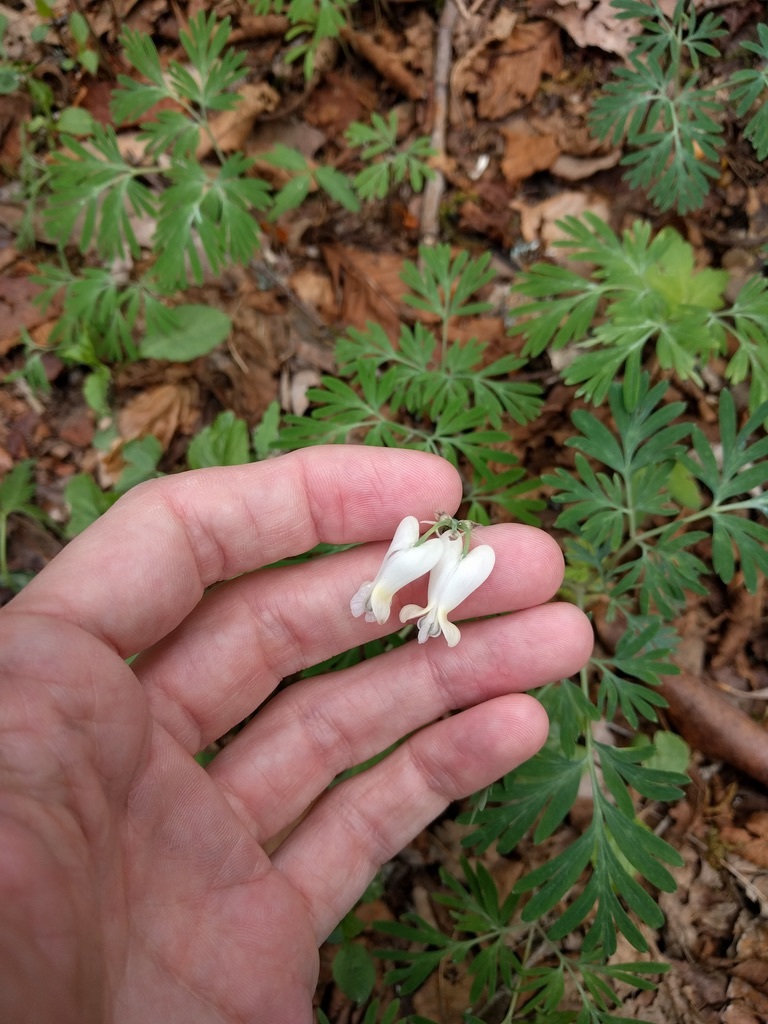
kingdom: Plantae
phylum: Tracheophyta
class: Magnoliopsida
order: Ranunculales
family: Papaveraceae
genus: Dicentra
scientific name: Dicentra canadensis
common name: Squirrel-corn
